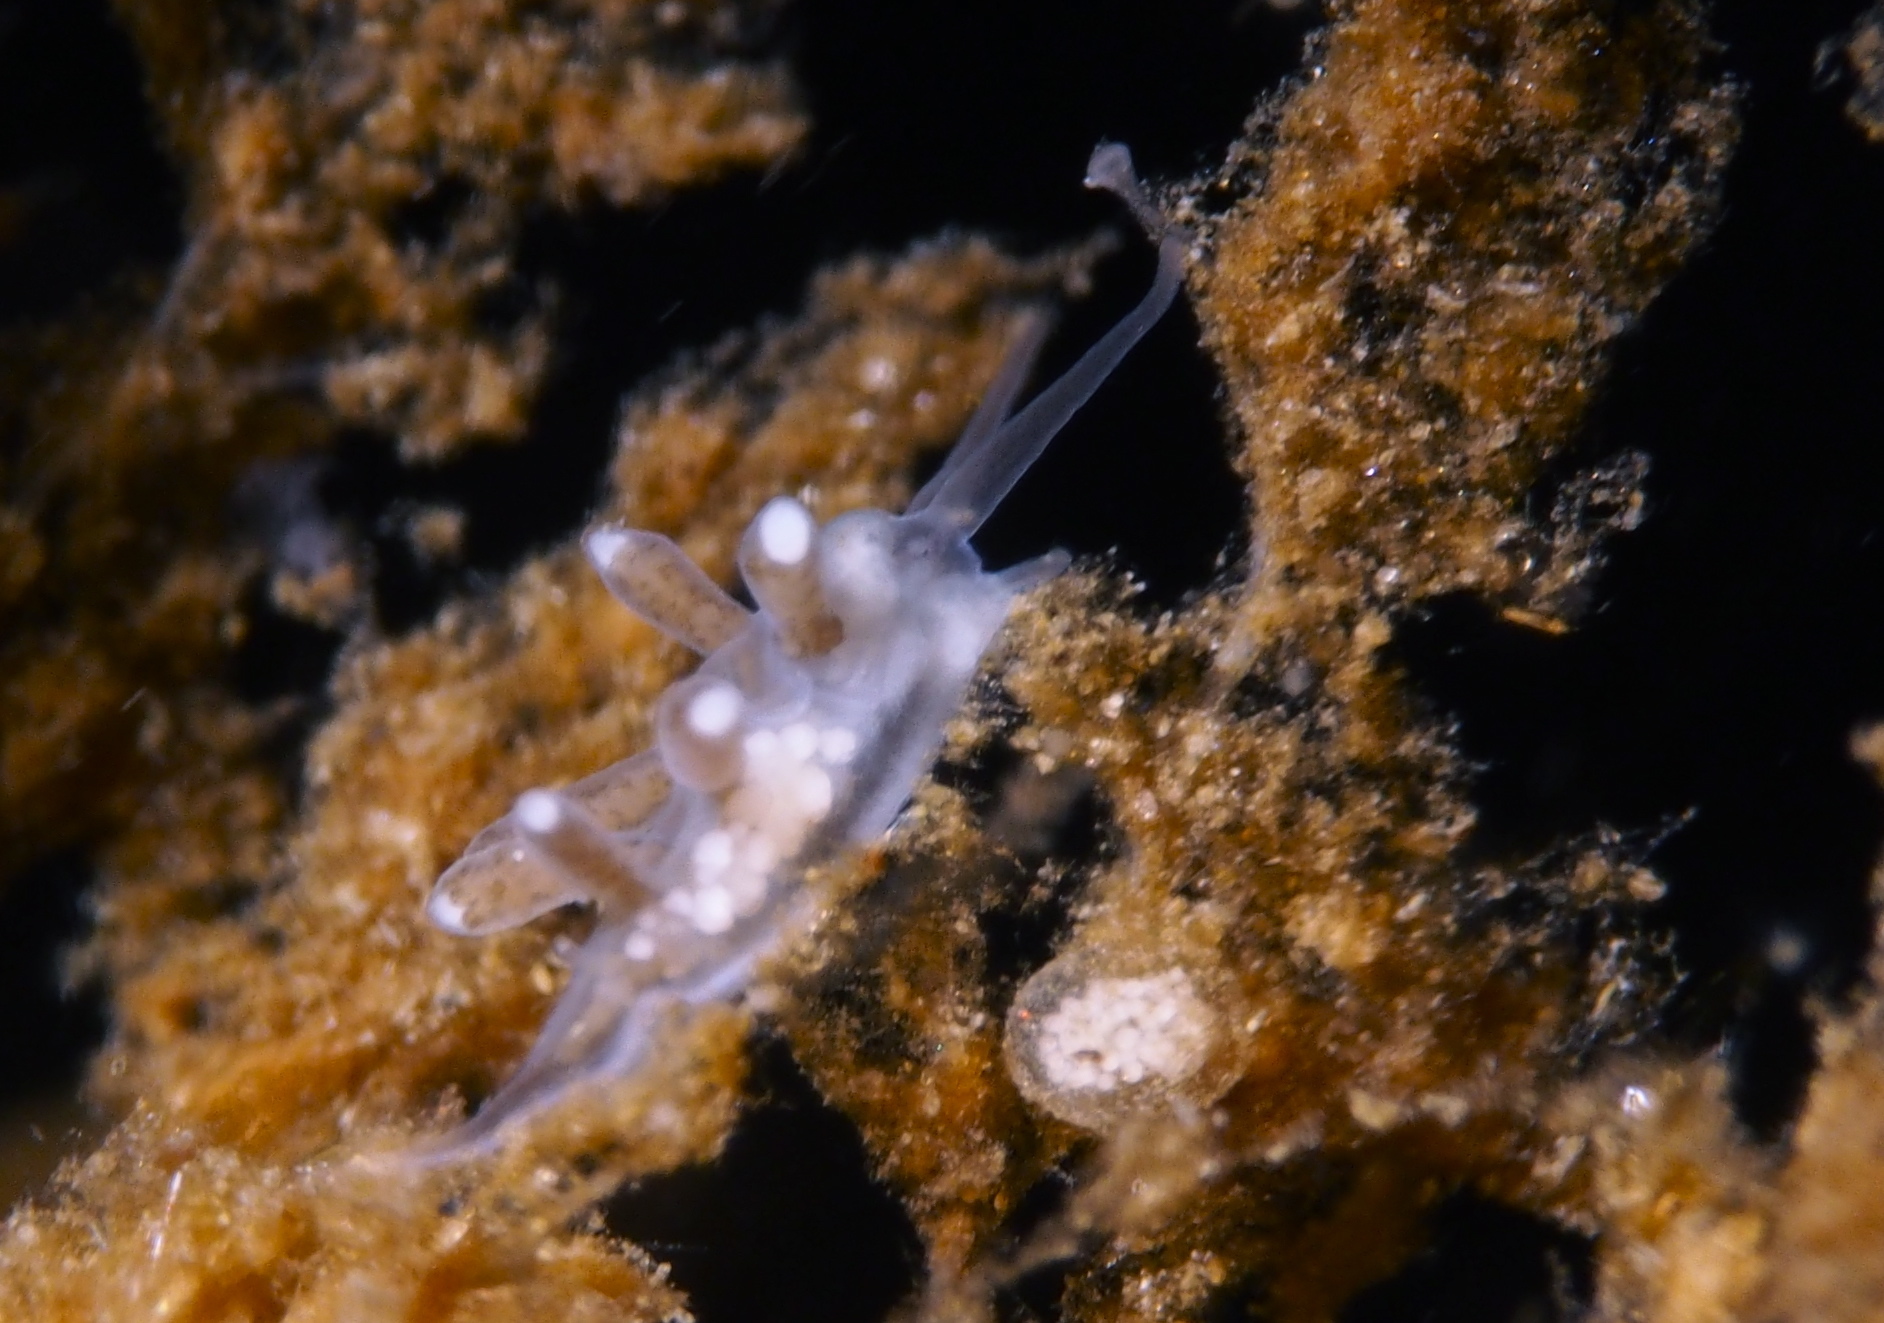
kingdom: Animalia
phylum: Mollusca
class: Gastropoda
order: Nudibranchia
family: Tergipedidae
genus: Tergipes
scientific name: Tergipes tergipes
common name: Johnston's balloon eolis
